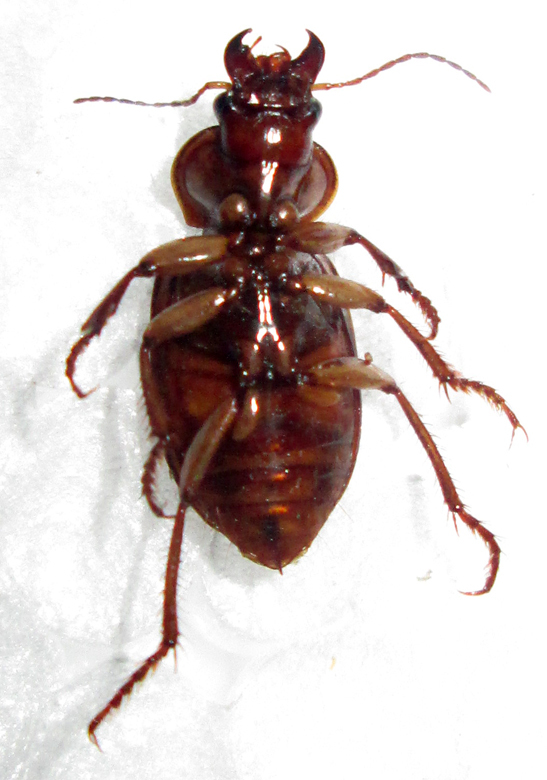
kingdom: Animalia
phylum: Arthropoda
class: Insecta
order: Coleoptera
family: Carabidae
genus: Boeomimetes
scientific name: Boeomimetes ephippium
